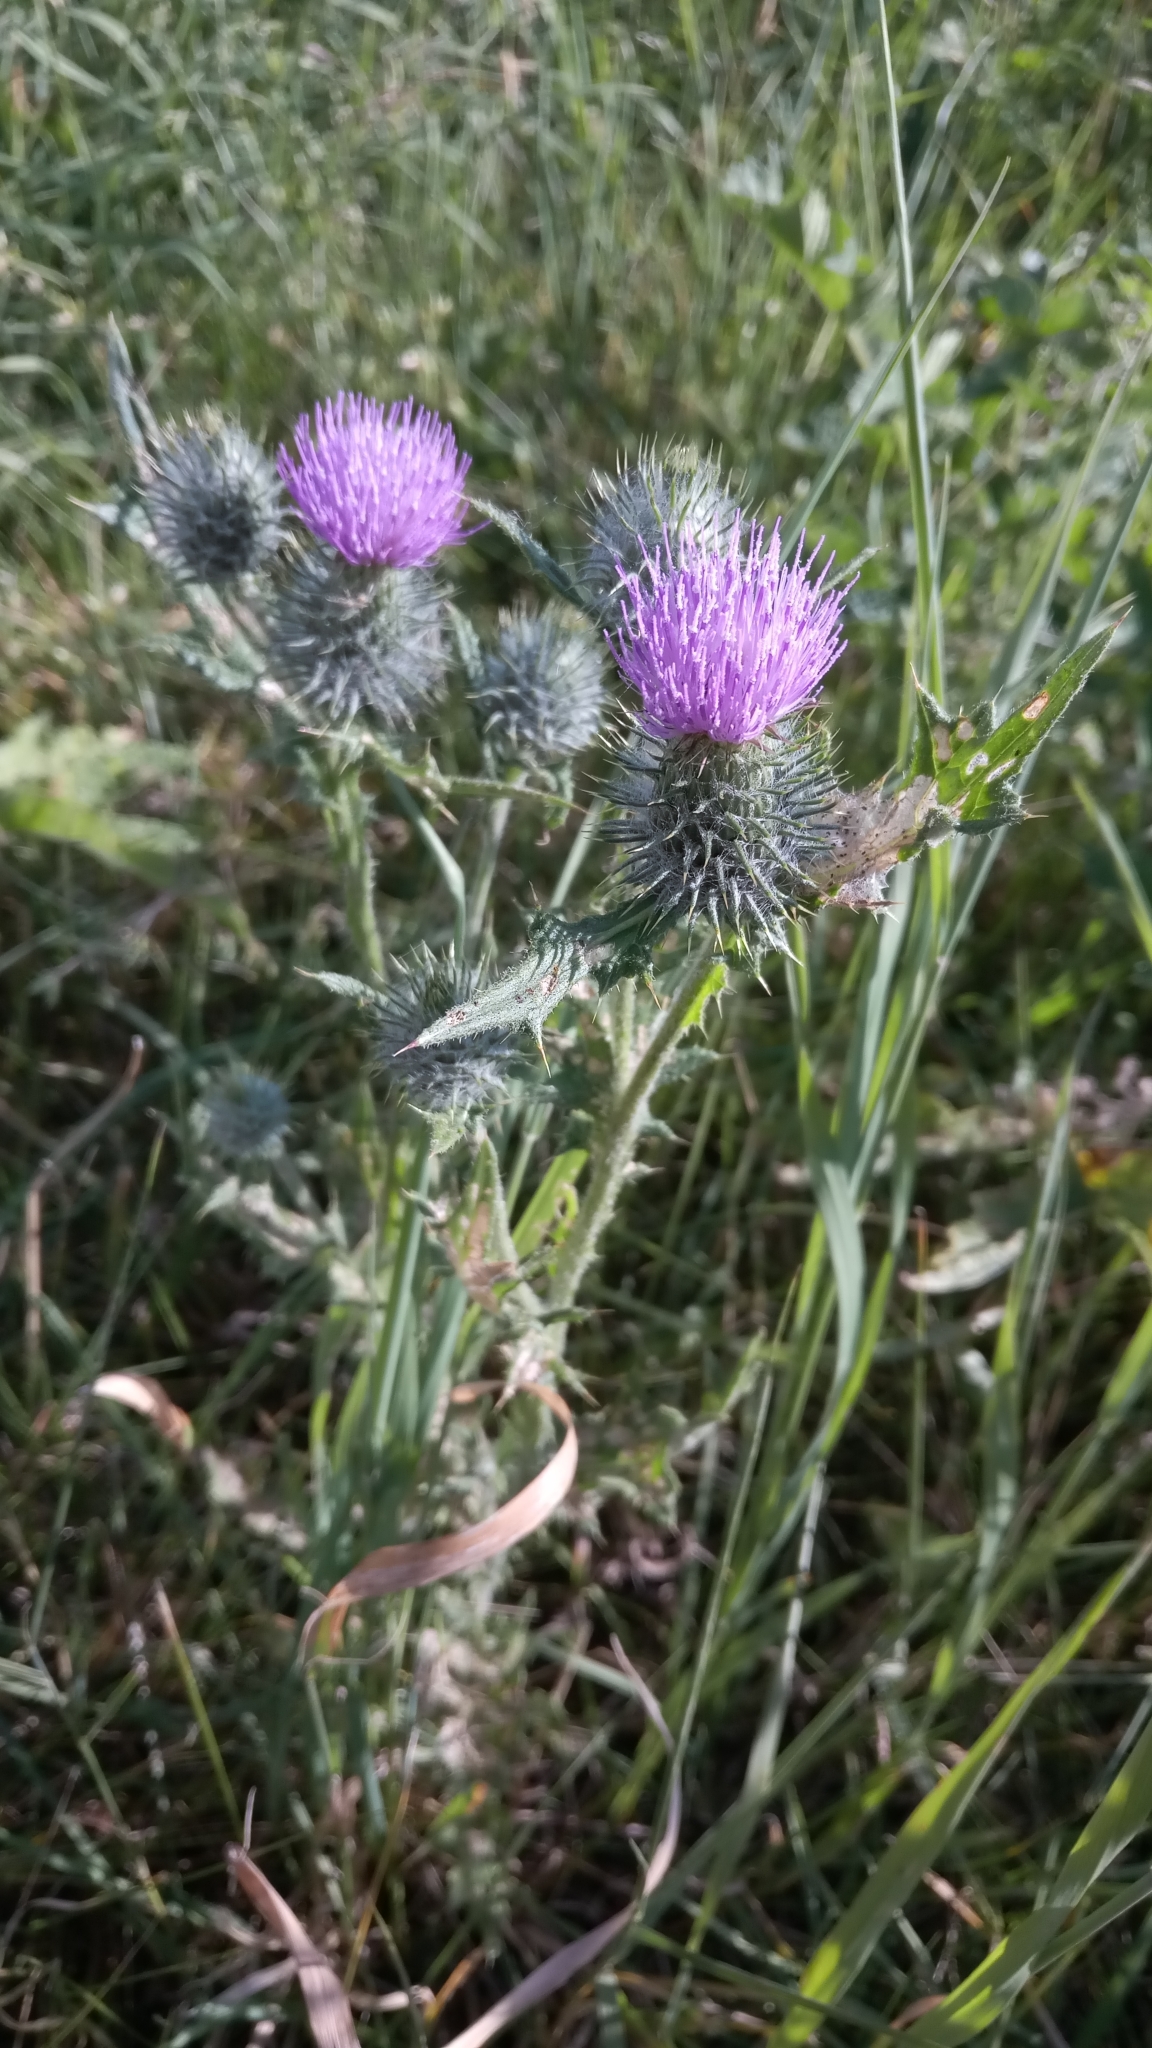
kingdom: Plantae
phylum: Tracheophyta
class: Magnoliopsida
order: Asterales
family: Asteraceae
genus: Cirsium
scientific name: Cirsium vulgare
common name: Bull thistle
